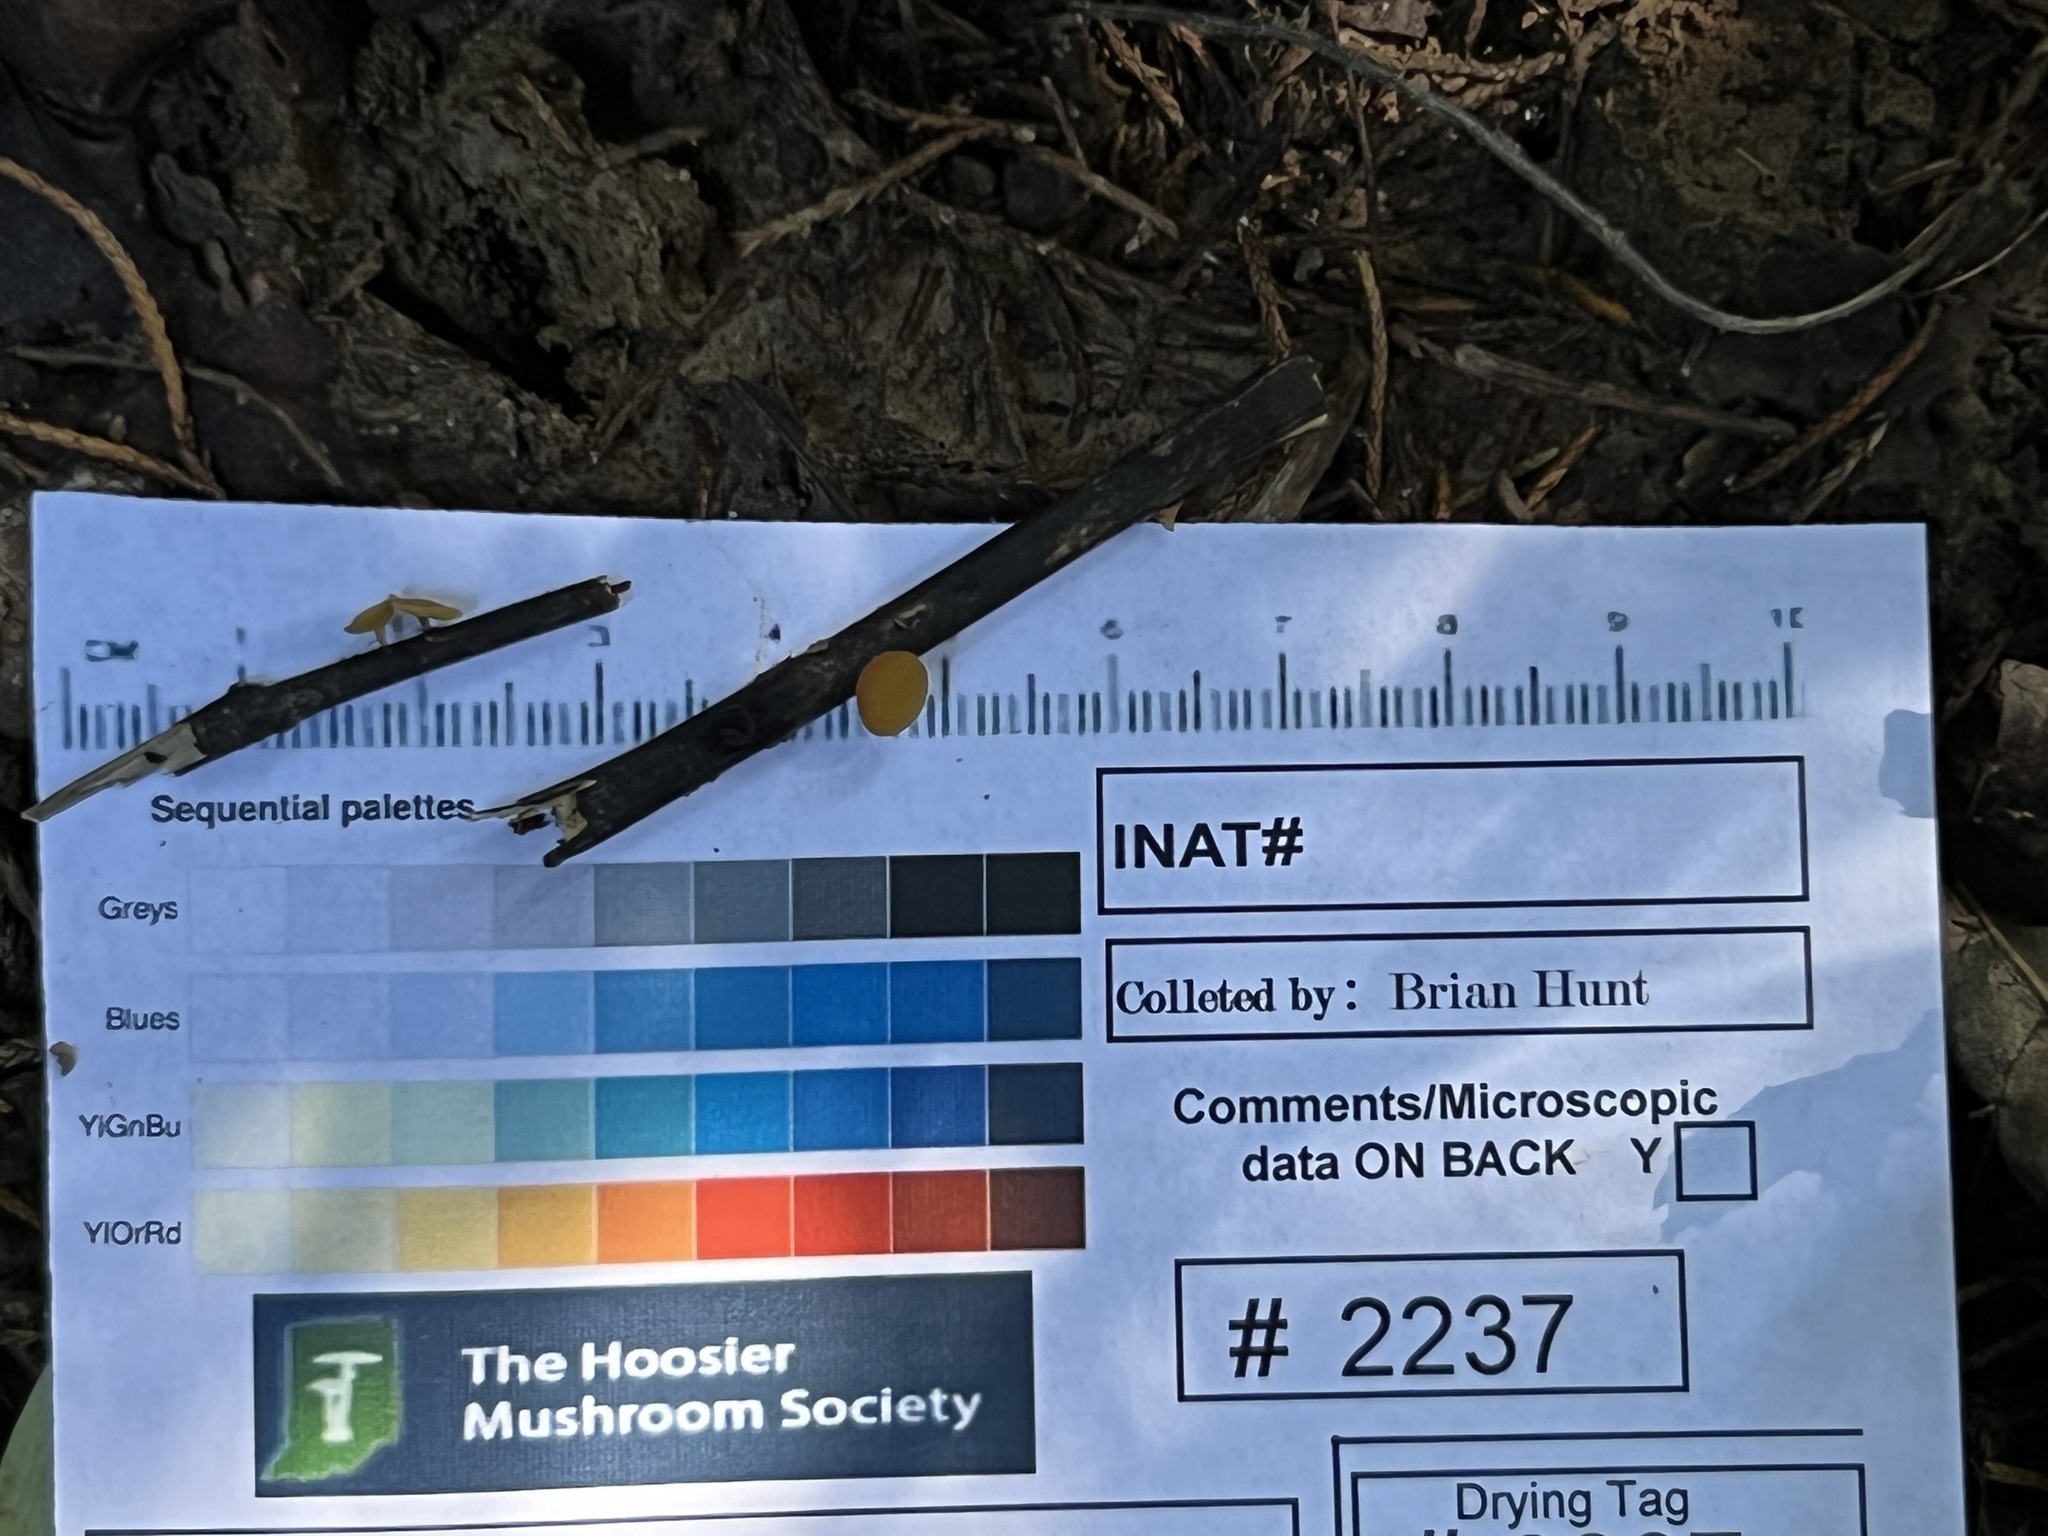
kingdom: Fungi
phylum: Ascomycota
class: Leotiomycetes
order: Helotiales
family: Helotiaceae
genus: Hymenoscyphus
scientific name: Hymenoscyphus epiphyllus
